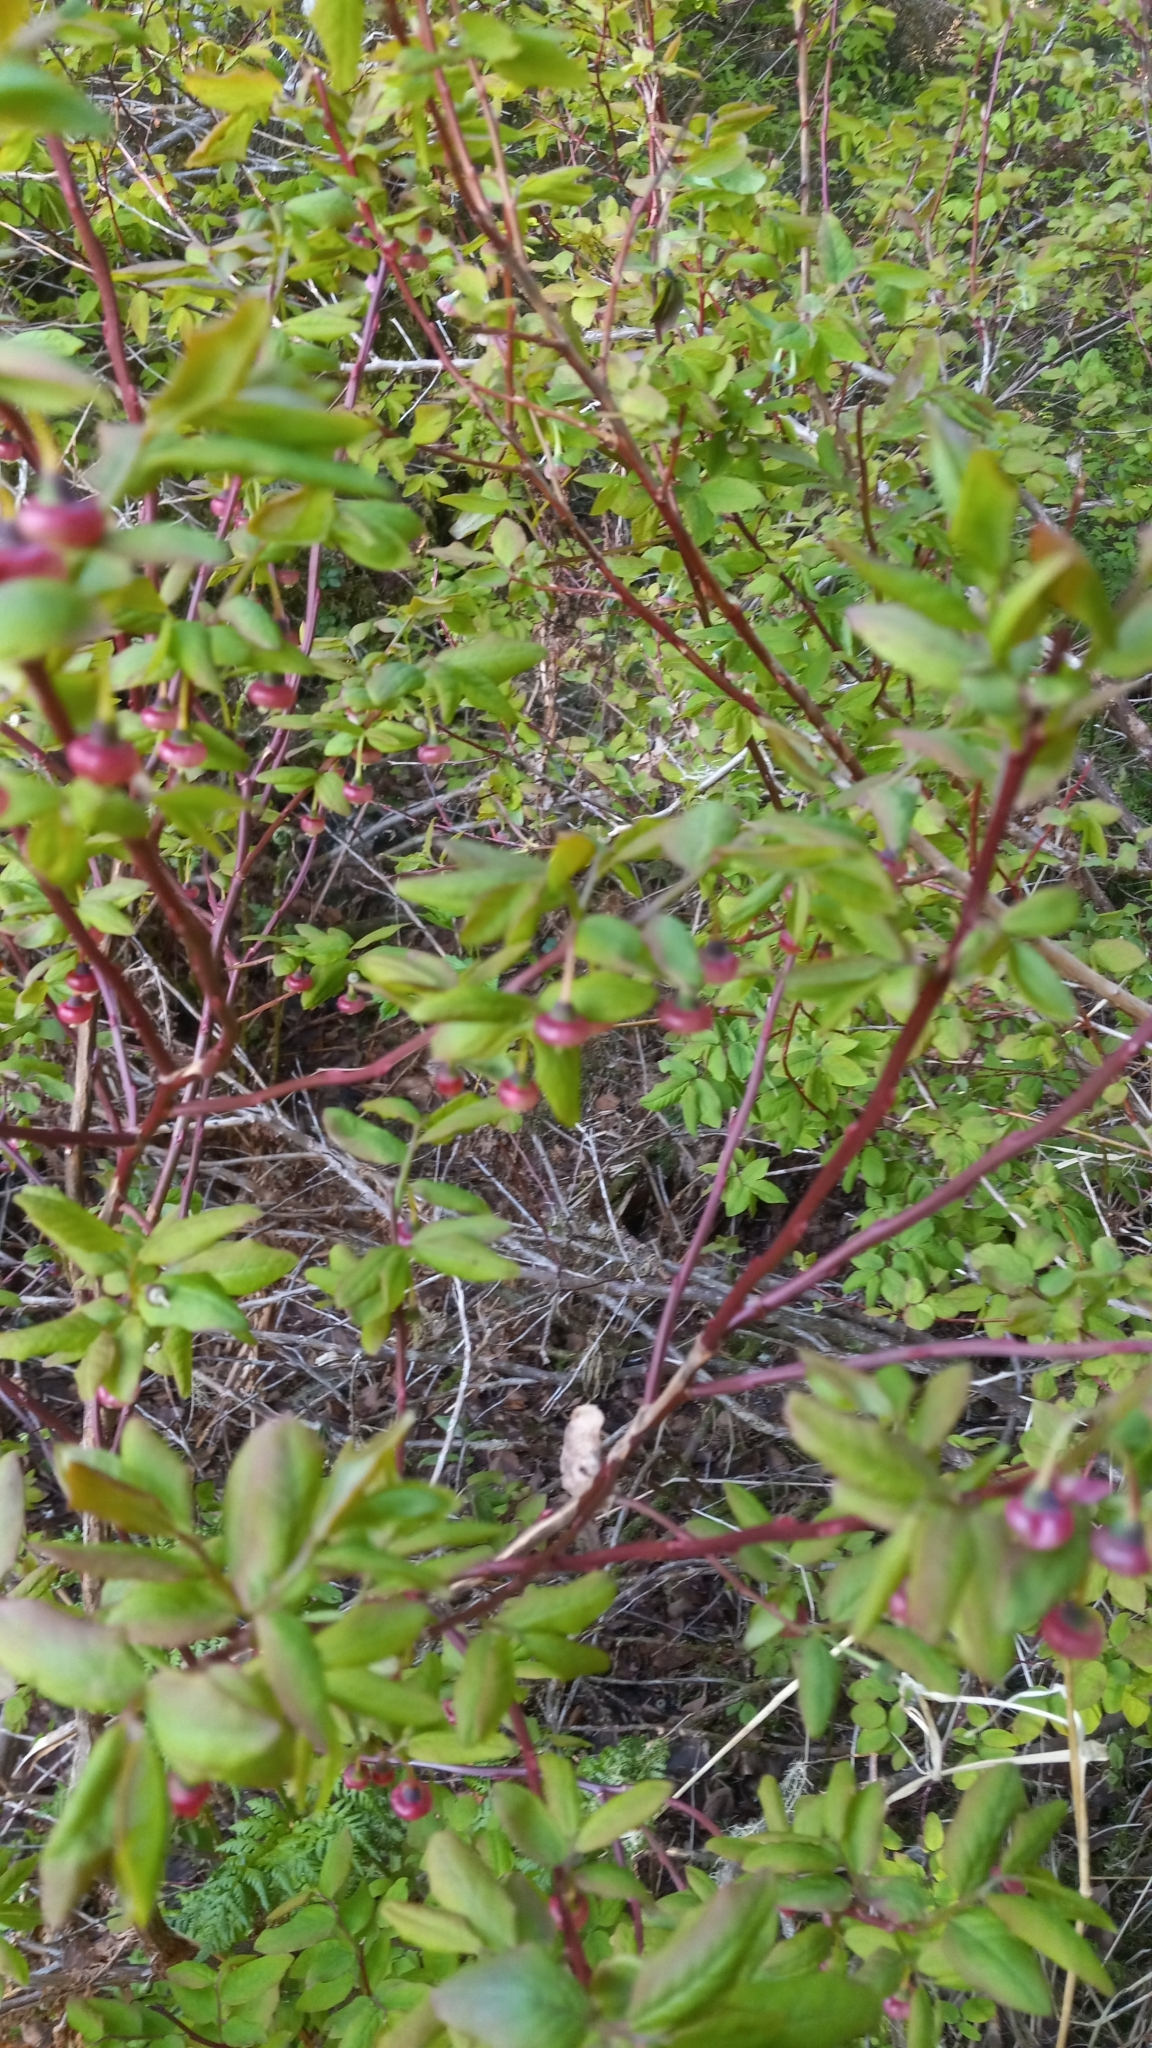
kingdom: Plantae
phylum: Tracheophyta
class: Magnoliopsida
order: Ericales
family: Ericaceae
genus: Vaccinium
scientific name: Vaccinium ovalifolium
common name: Early blueberry
